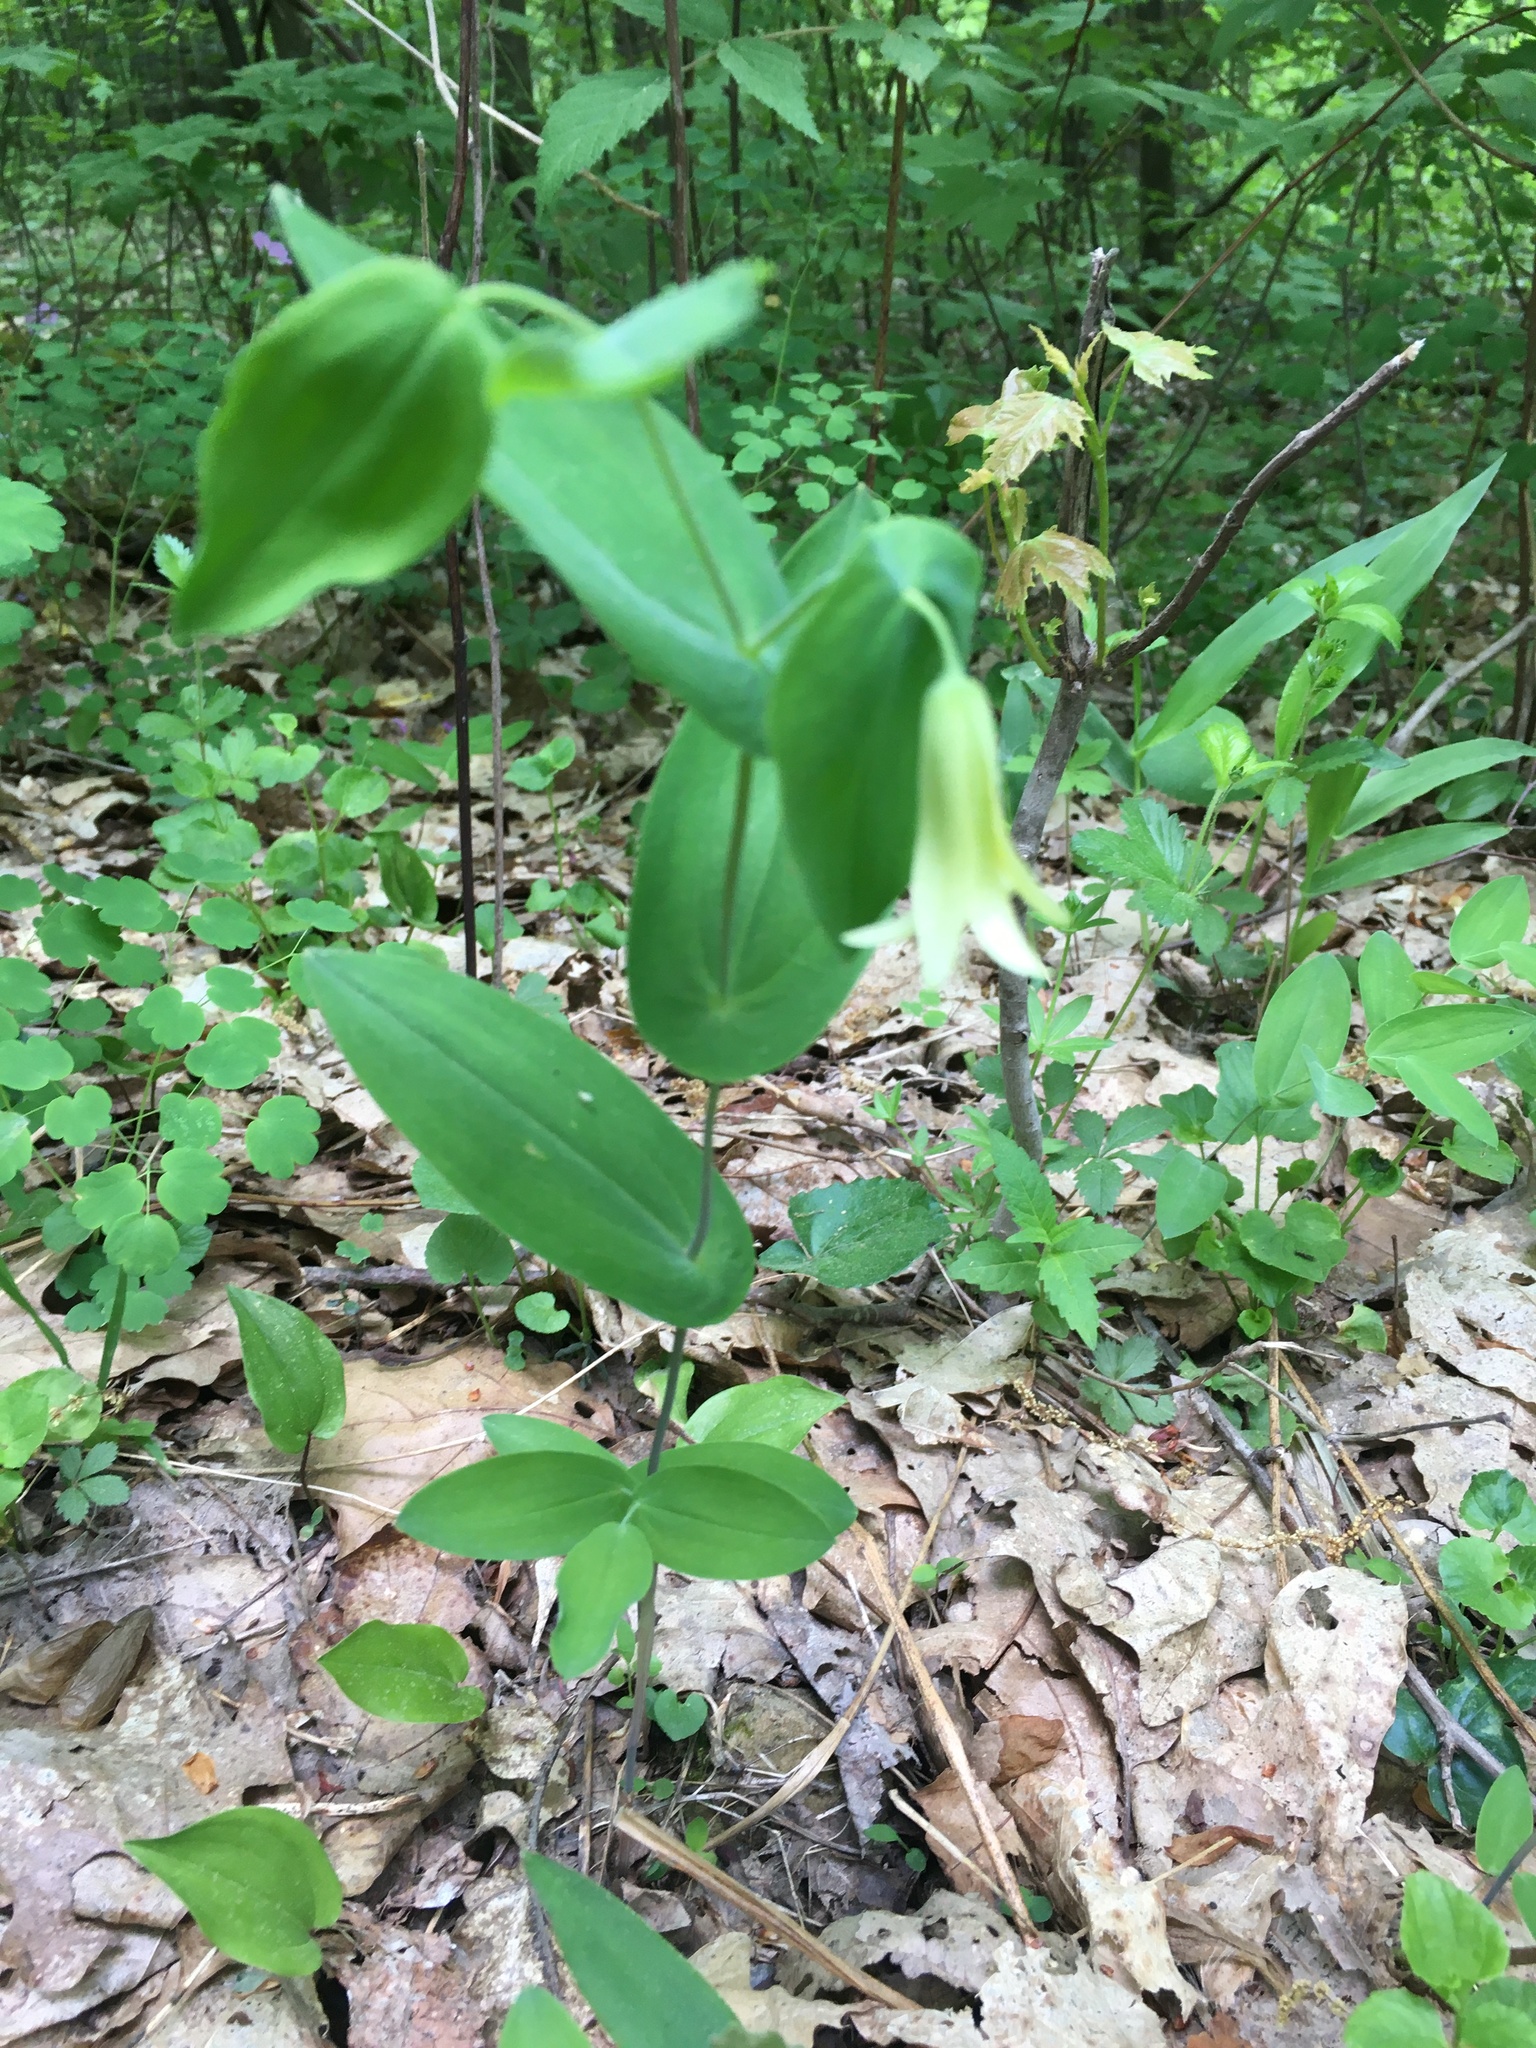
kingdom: Plantae
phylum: Tracheophyta
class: Liliopsida
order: Liliales
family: Colchicaceae
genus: Uvularia
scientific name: Uvularia perfoliata
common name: Perfoliate bellwort
